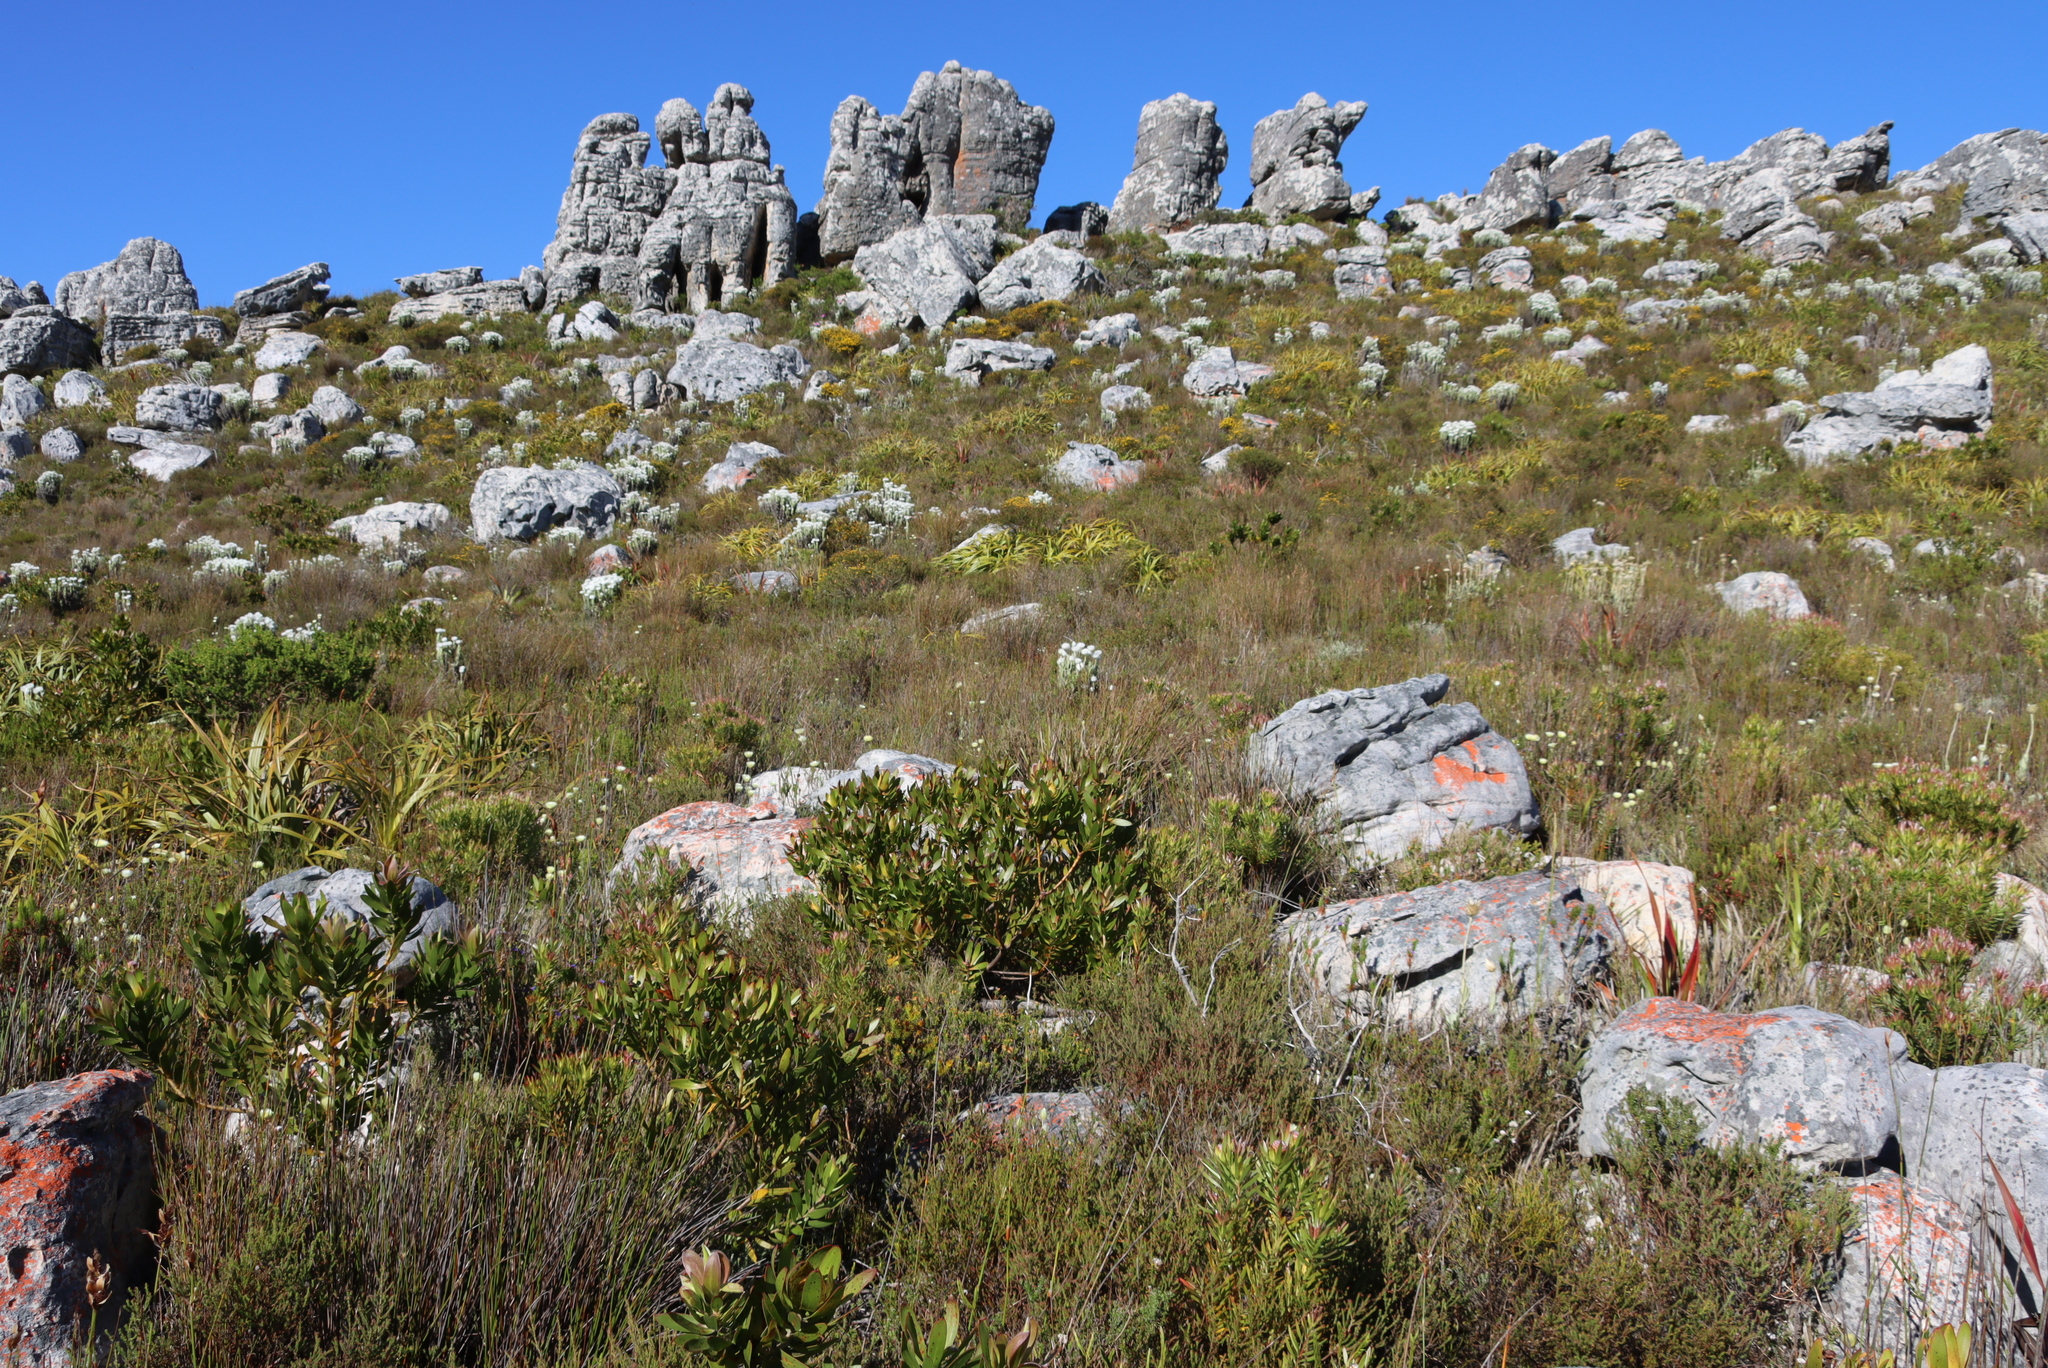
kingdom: Plantae
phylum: Tracheophyta
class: Liliopsida
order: Poales
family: Cyperaceae
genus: Tetraria
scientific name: Tetraria thermalis
